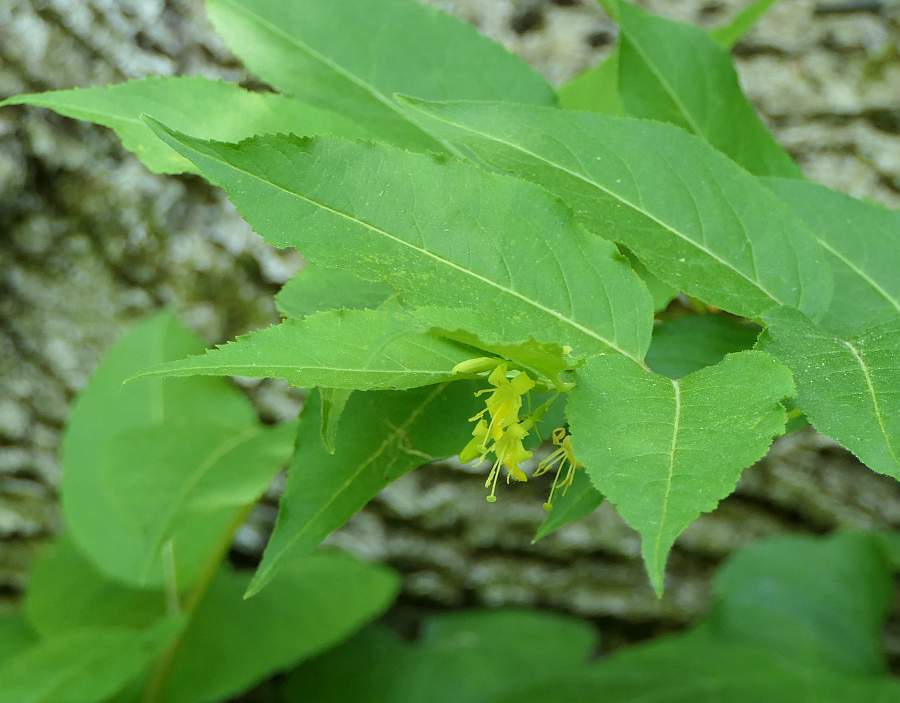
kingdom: Plantae
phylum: Tracheophyta
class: Magnoliopsida
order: Dipsacales
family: Caprifoliaceae
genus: Diervilla
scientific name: Diervilla lonicera
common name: Bush-honeysuckle
